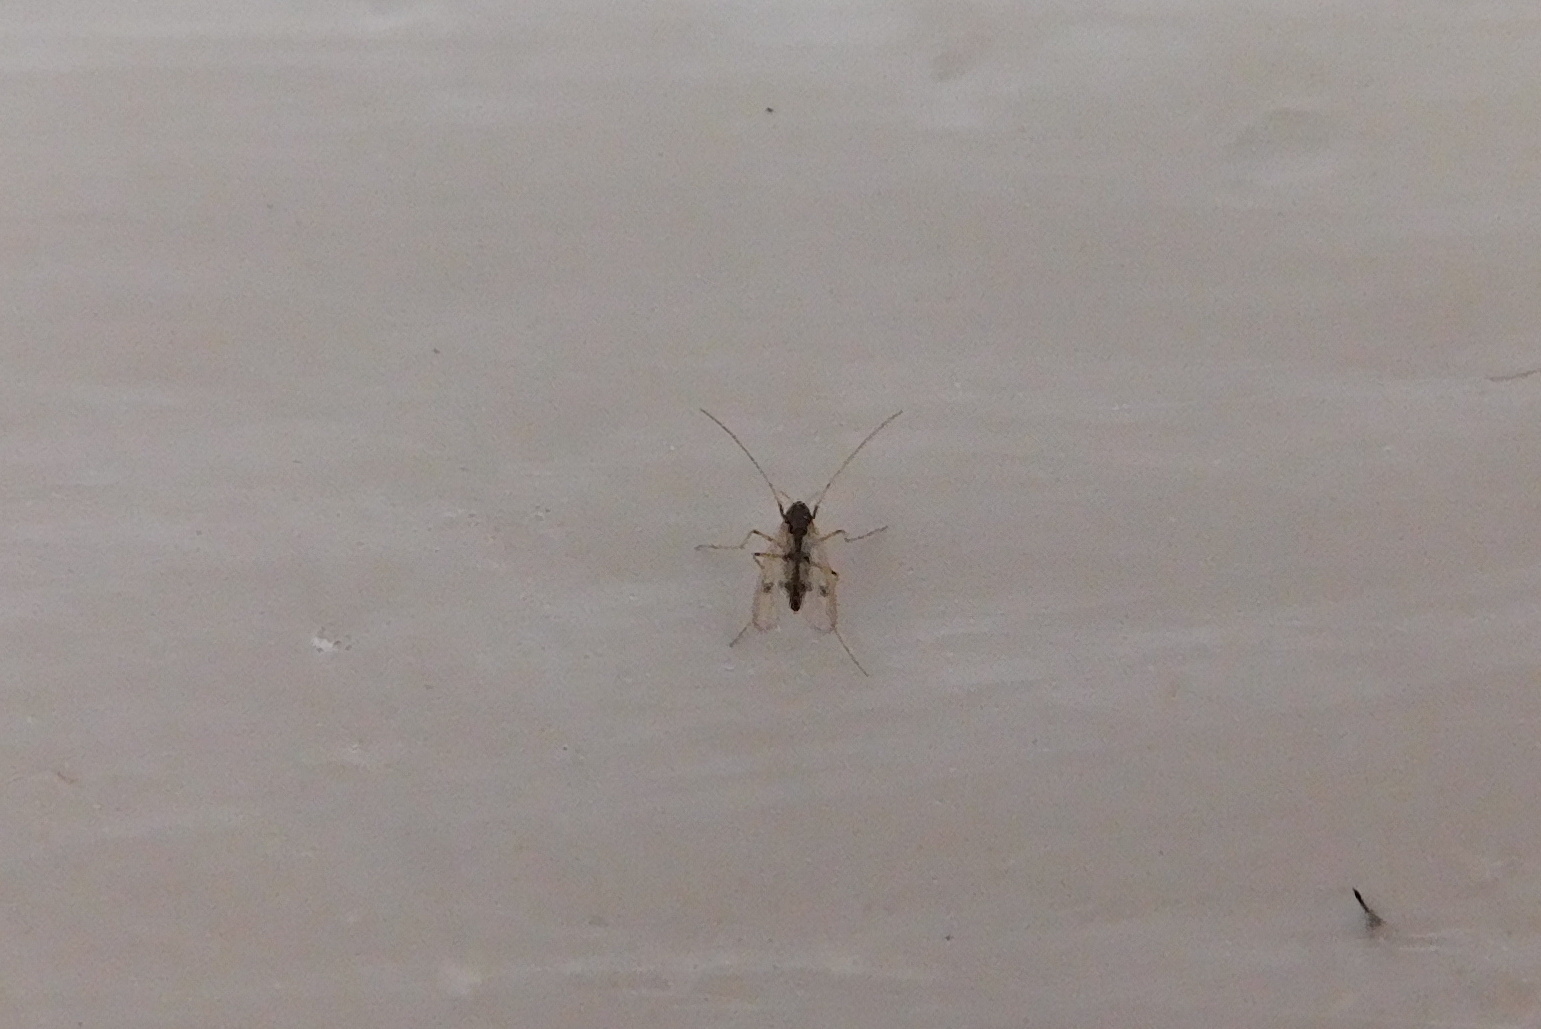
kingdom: Animalia
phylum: Arthropoda
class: Insecta
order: Diptera
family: Chironomidae
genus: Polypedilum
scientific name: Polypedilum
